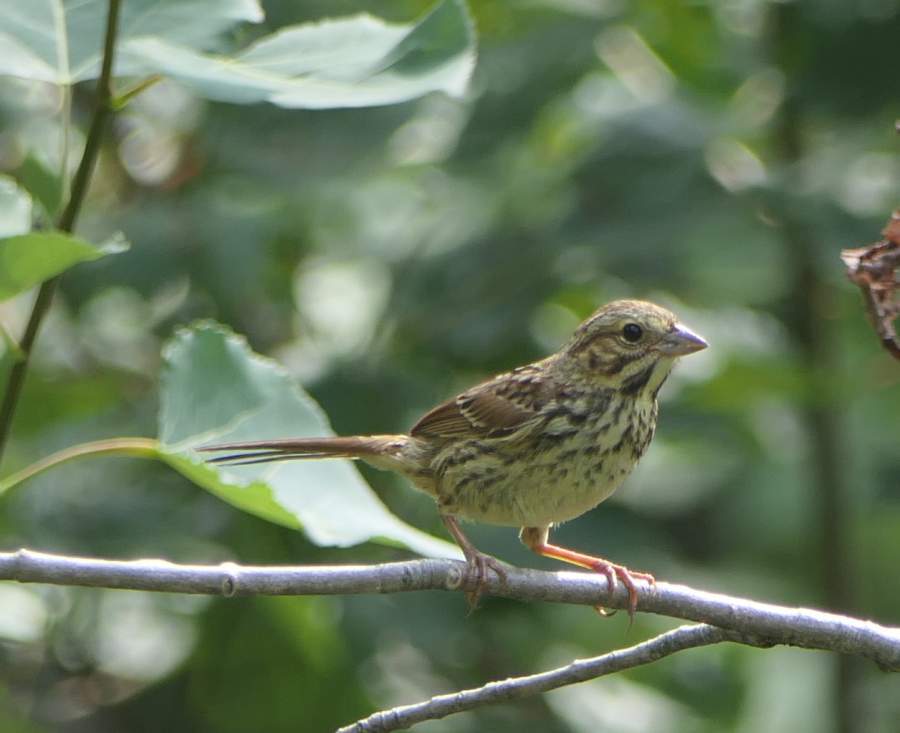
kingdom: Animalia
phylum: Chordata
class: Aves
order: Passeriformes
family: Passerellidae
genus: Melospiza
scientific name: Melospiza melodia
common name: Song sparrow
